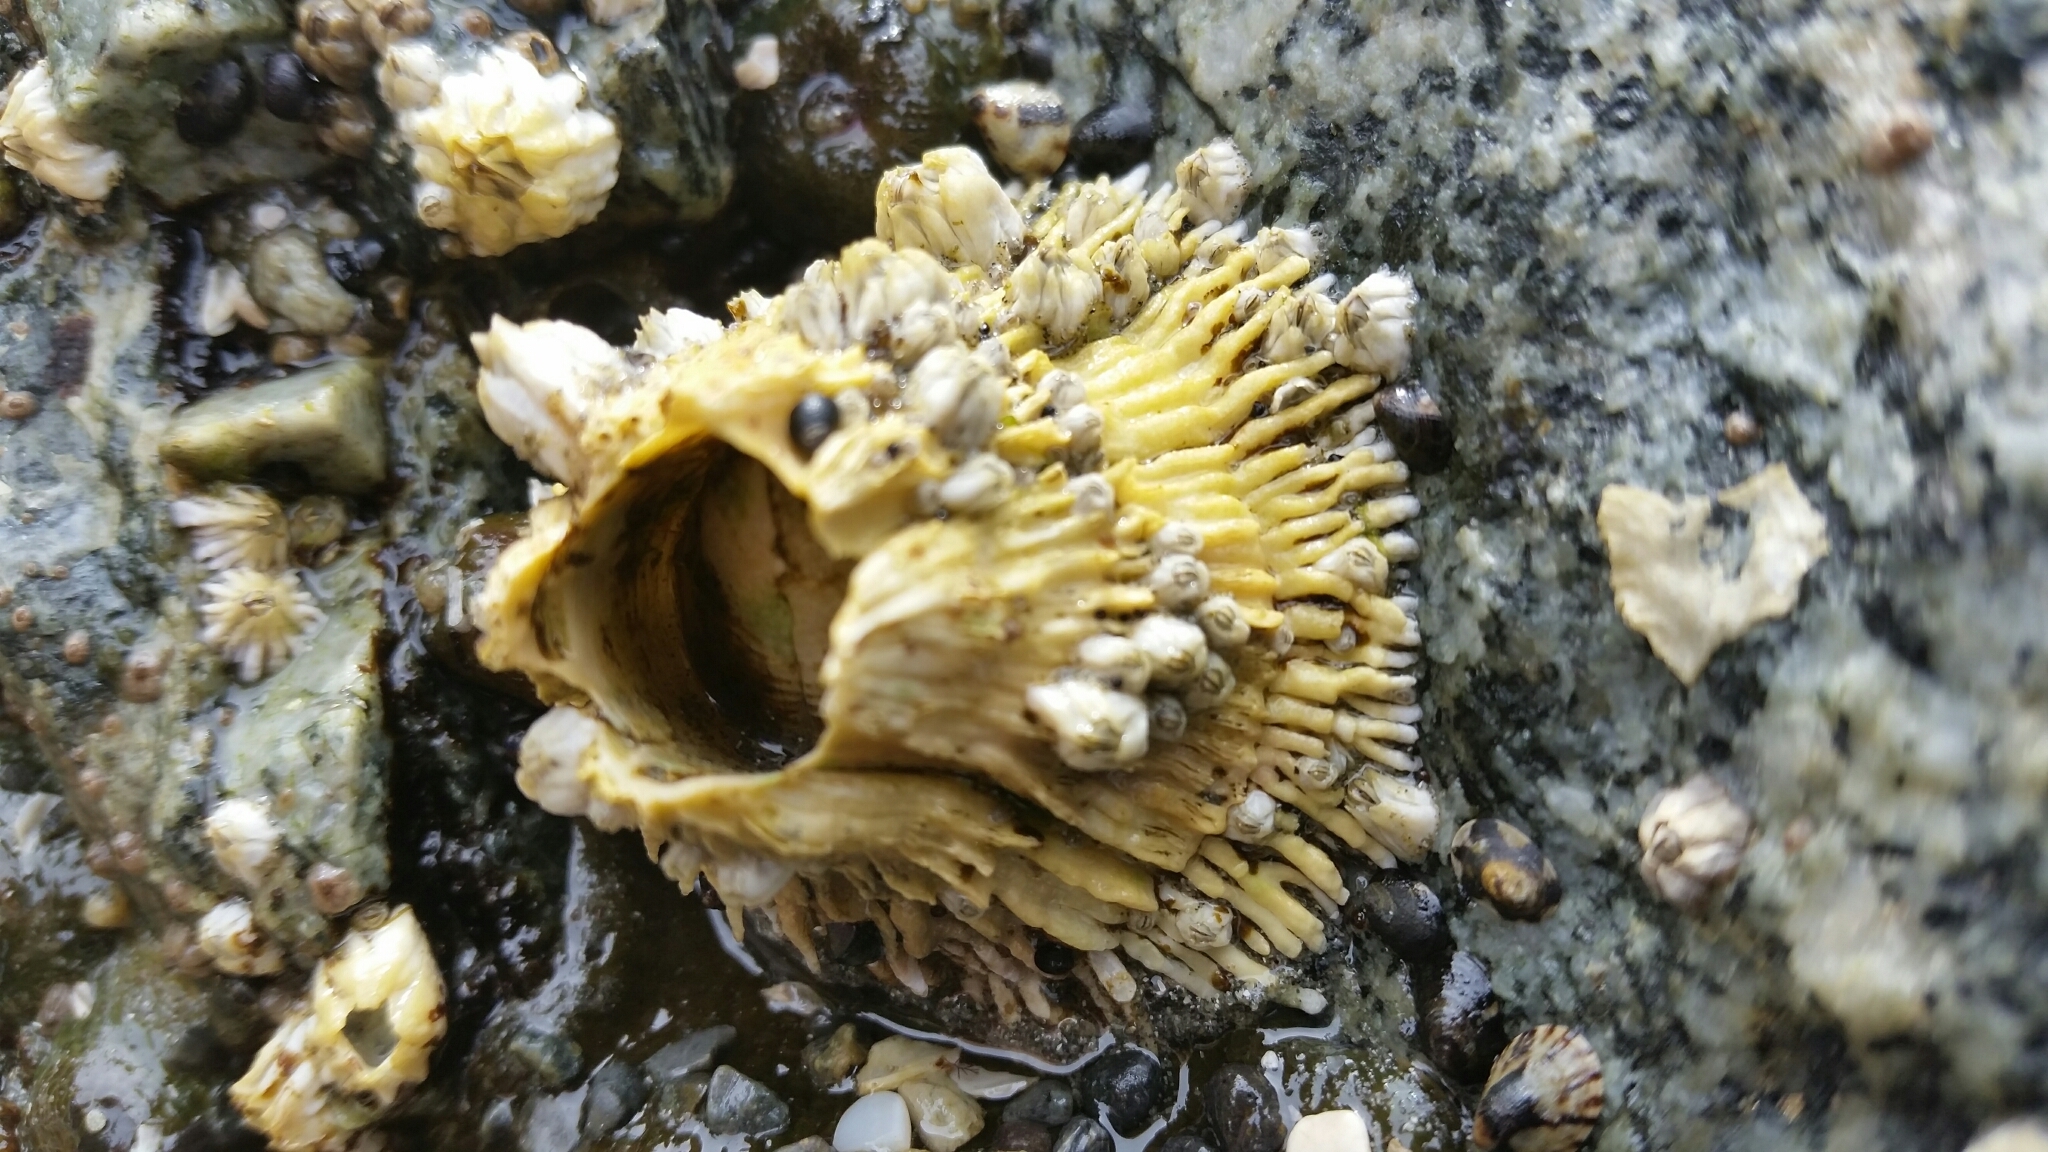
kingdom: Animalia
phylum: Arthropoda
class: Maxillopoda
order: Sessilia
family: Archaeobalanidae
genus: Semibalanus
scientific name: Semibalanus cariosus
